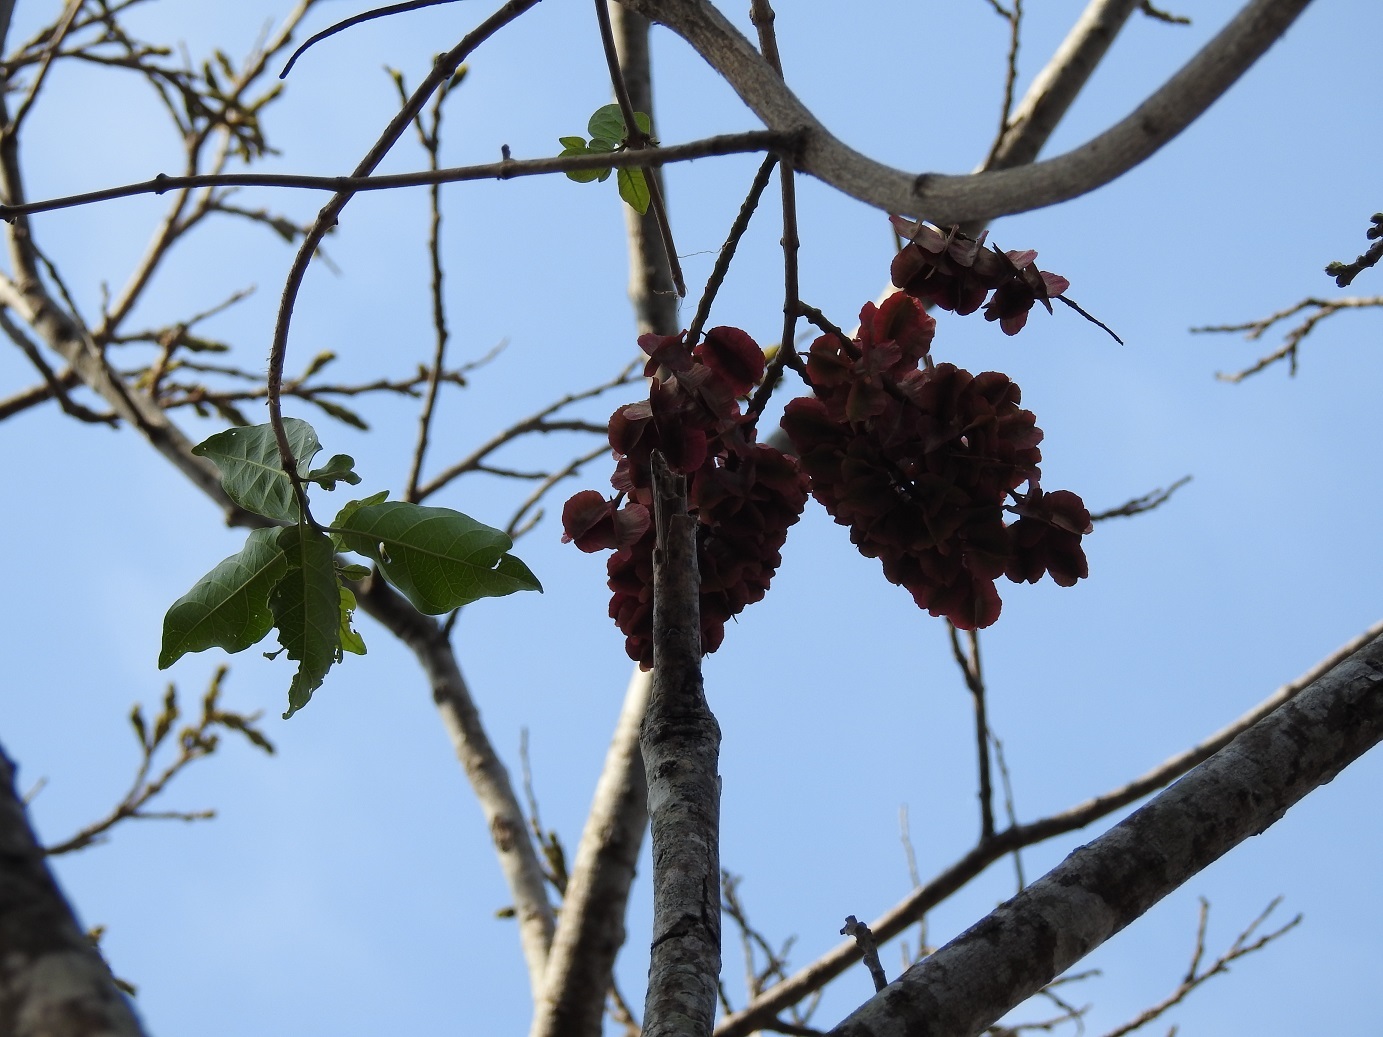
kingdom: Plantae
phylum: Tracheophyta
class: Magnoliopsida
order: Myrtales
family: Combretaceae
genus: Combretum
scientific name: Combretum fruticosum
